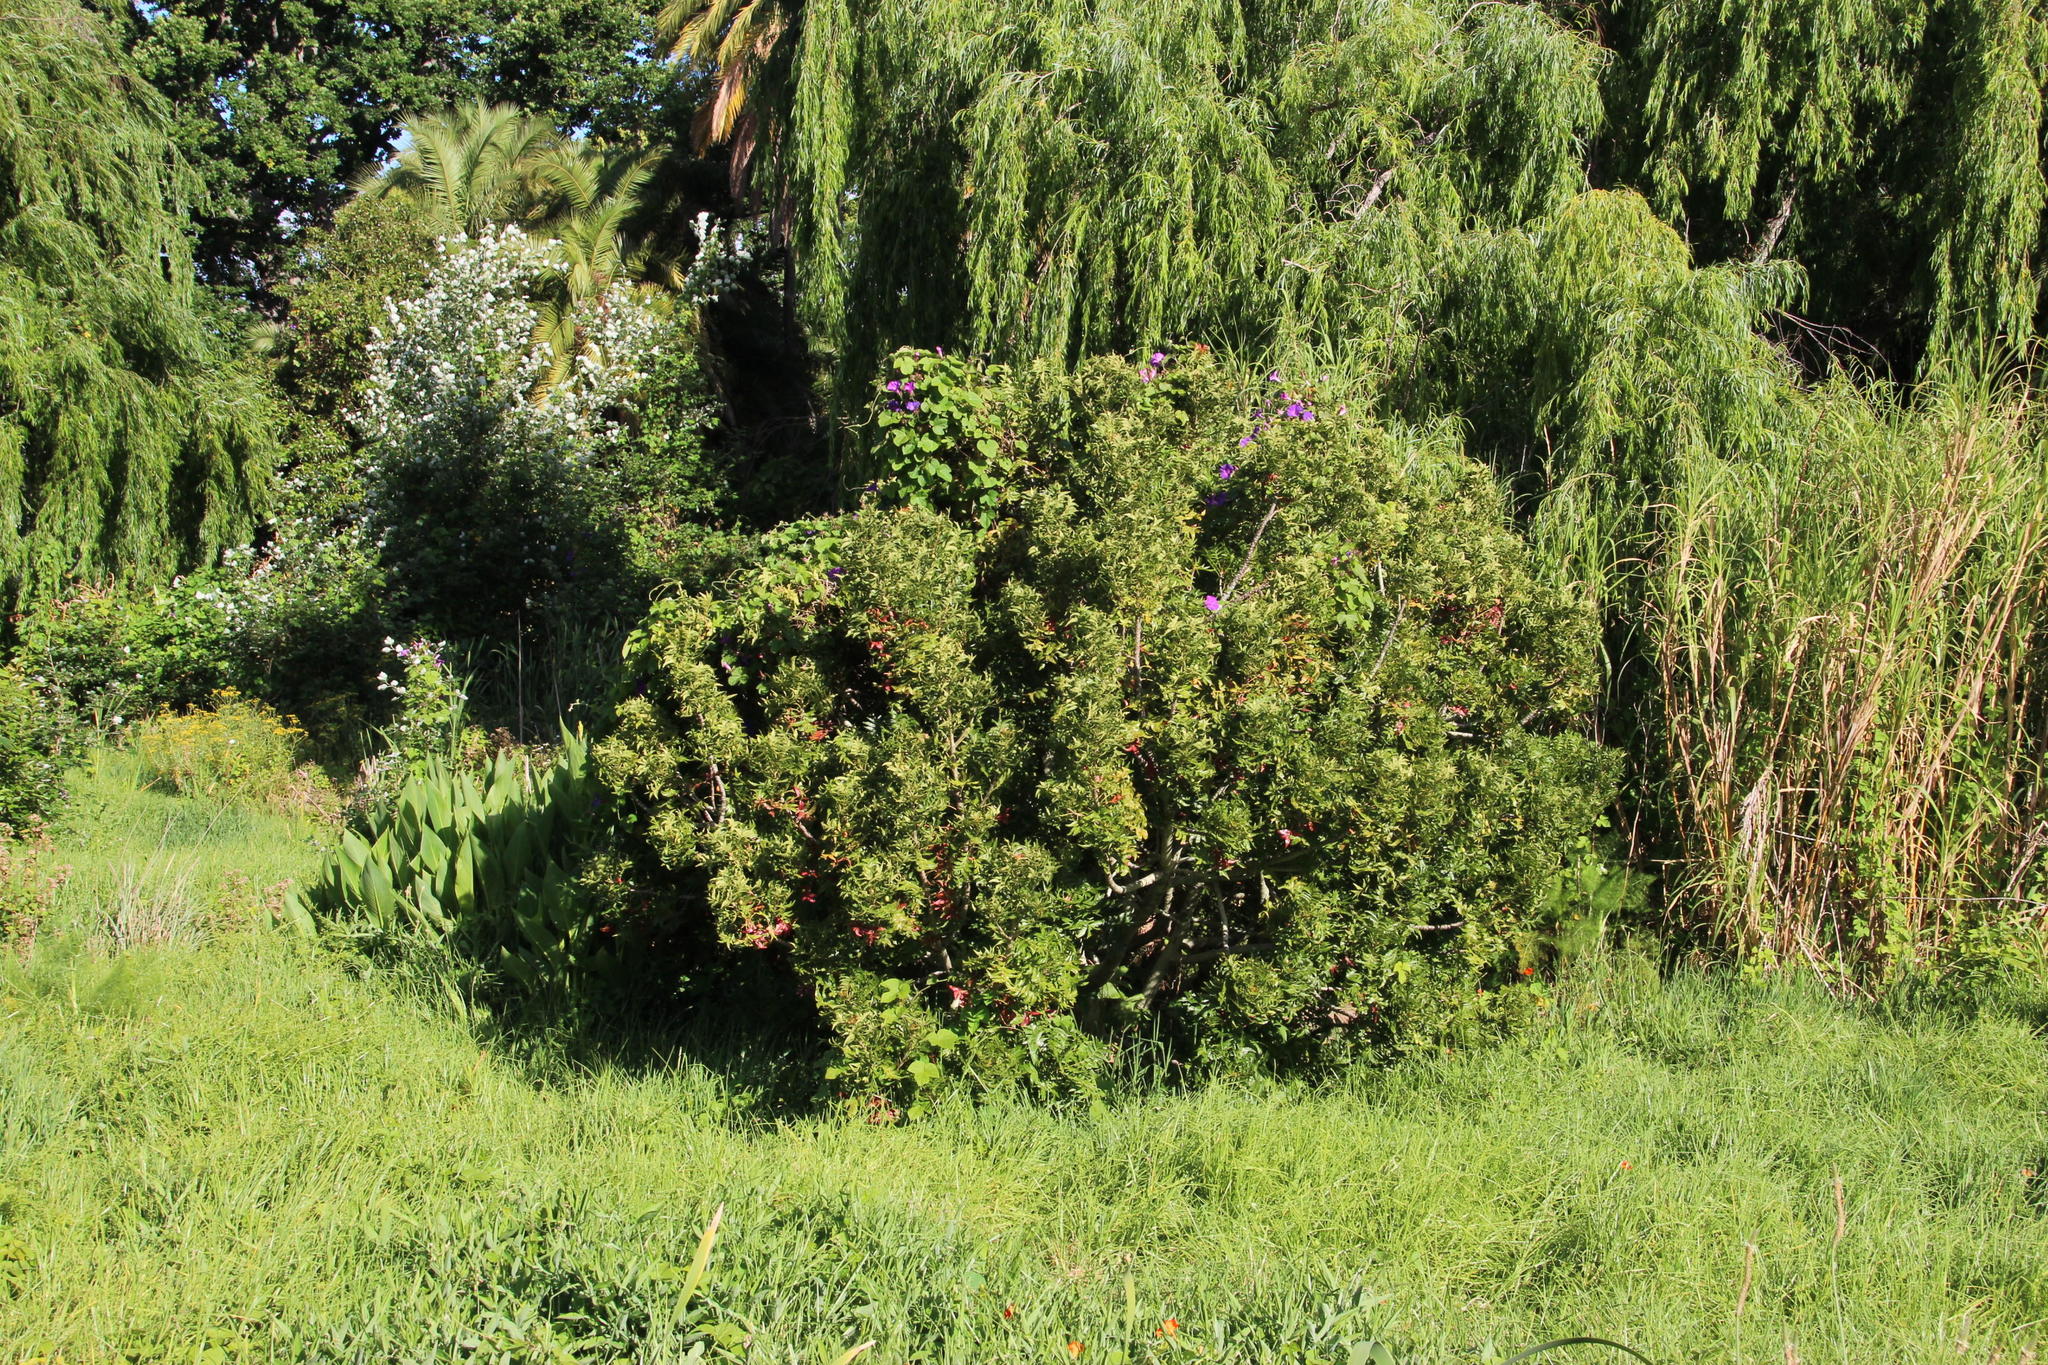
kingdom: Plantae
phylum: Tracheophyta
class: Magnoliopsida
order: Sapindales
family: Anacardiaceae
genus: Schinus
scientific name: Schinus terebinthifolia
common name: Brazilian peppertree
